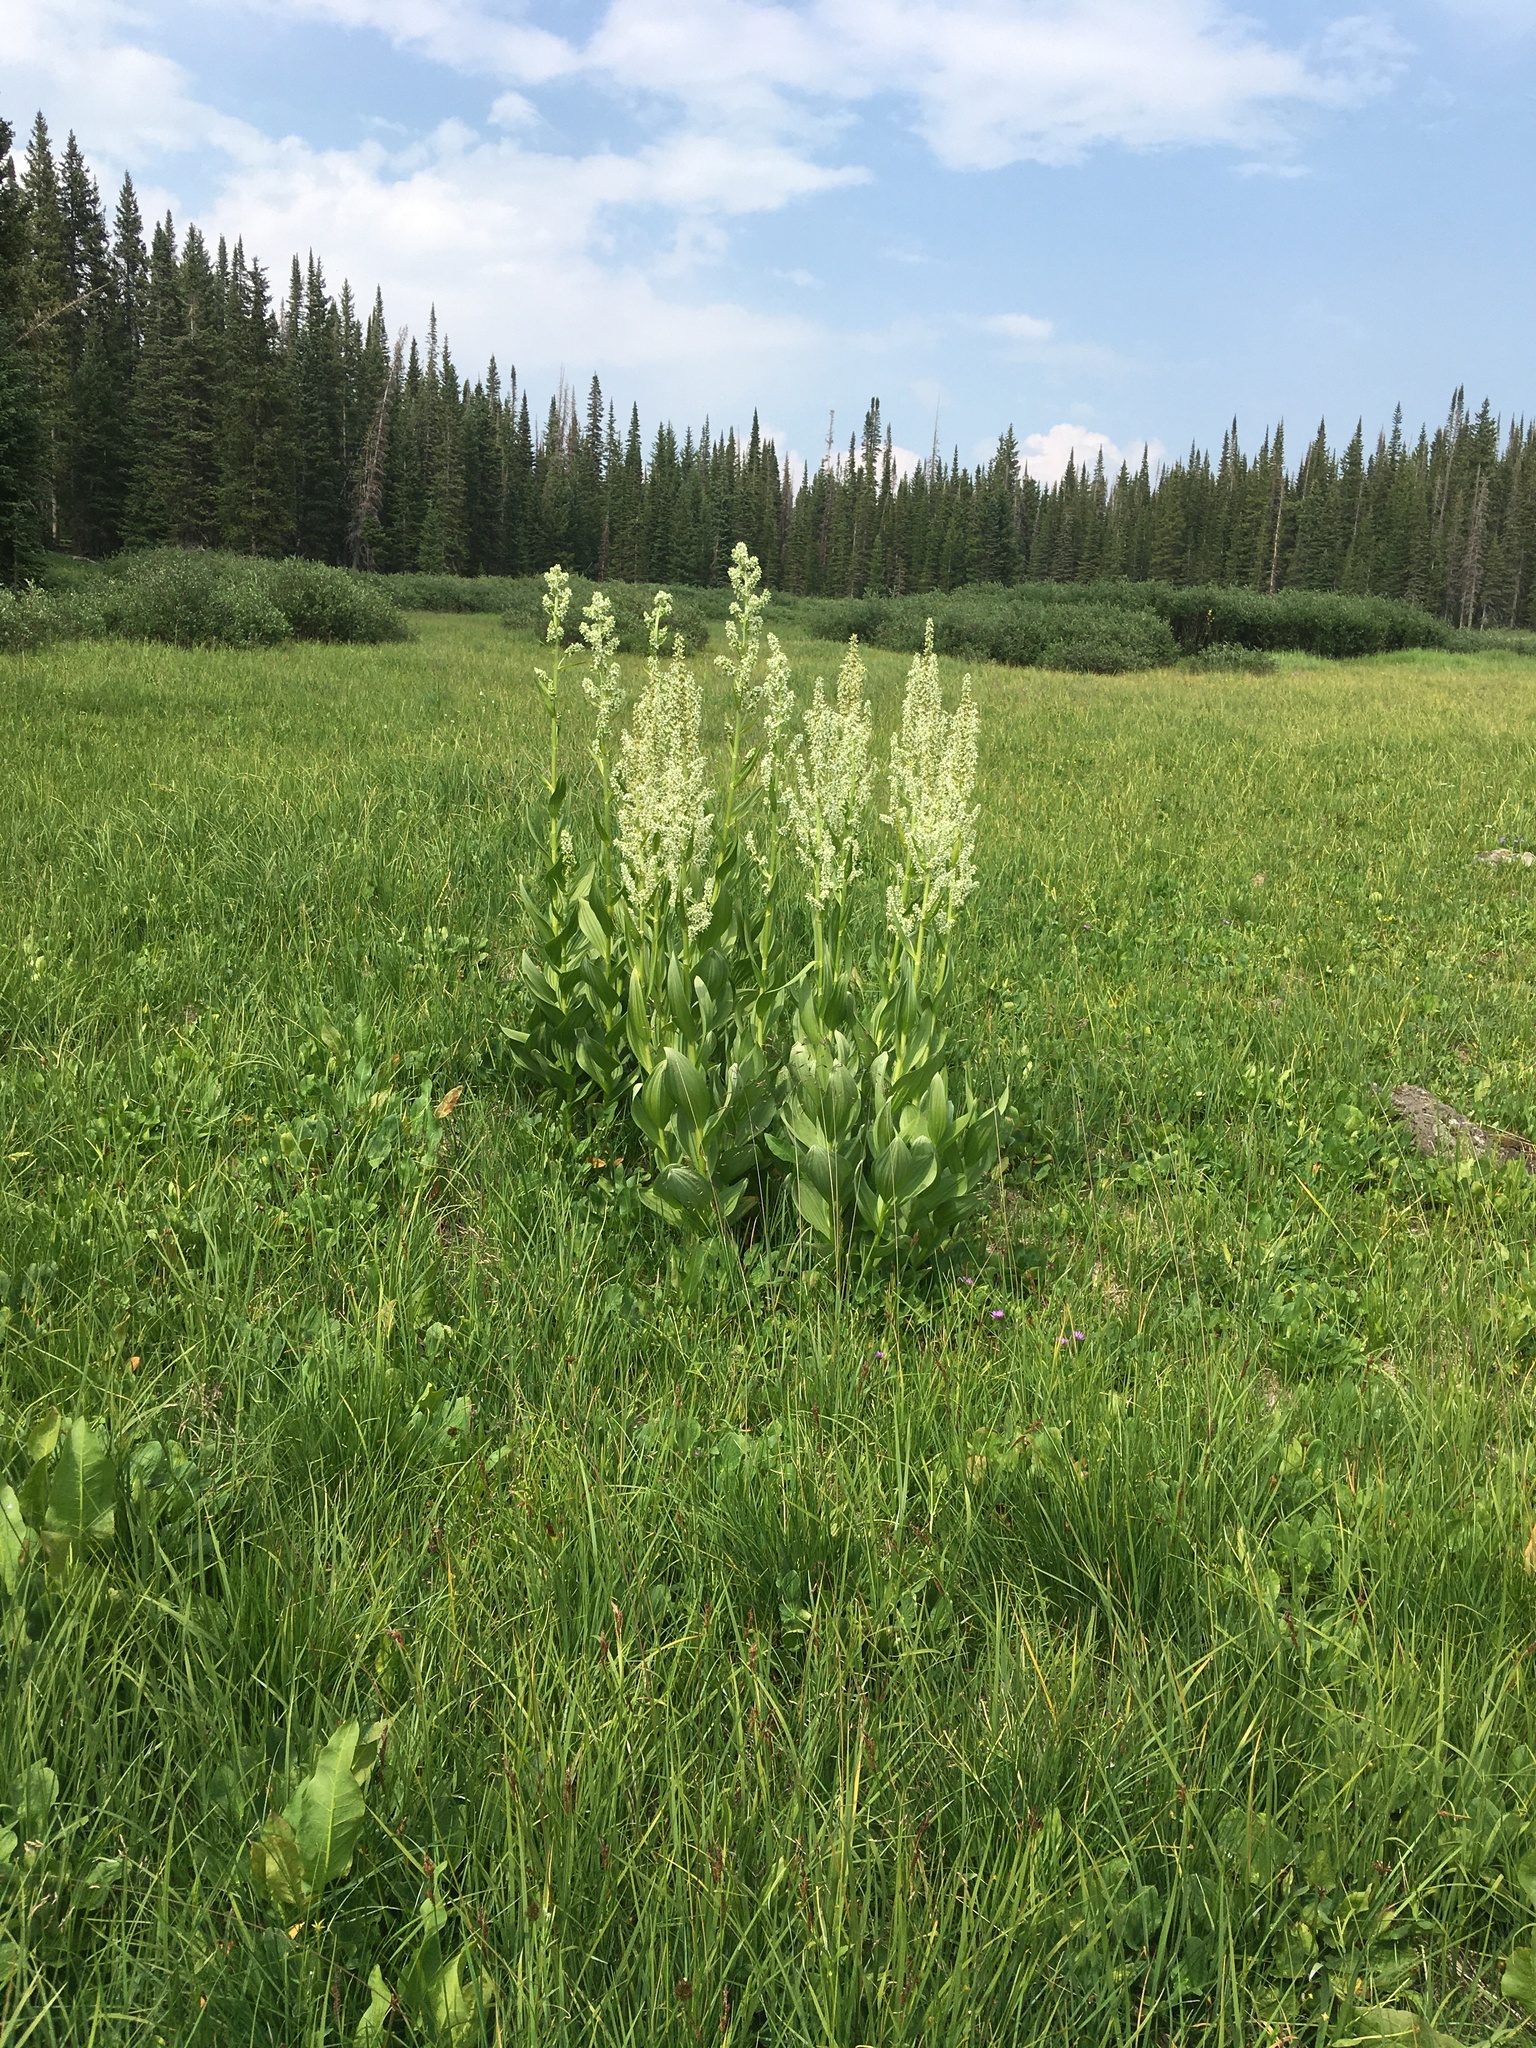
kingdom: Plantae
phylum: Tracheophyta
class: Liliopsida
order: Liliales
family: Melanthiaceae
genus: Veratrum
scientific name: Veratrum californicum
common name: California veratrum
